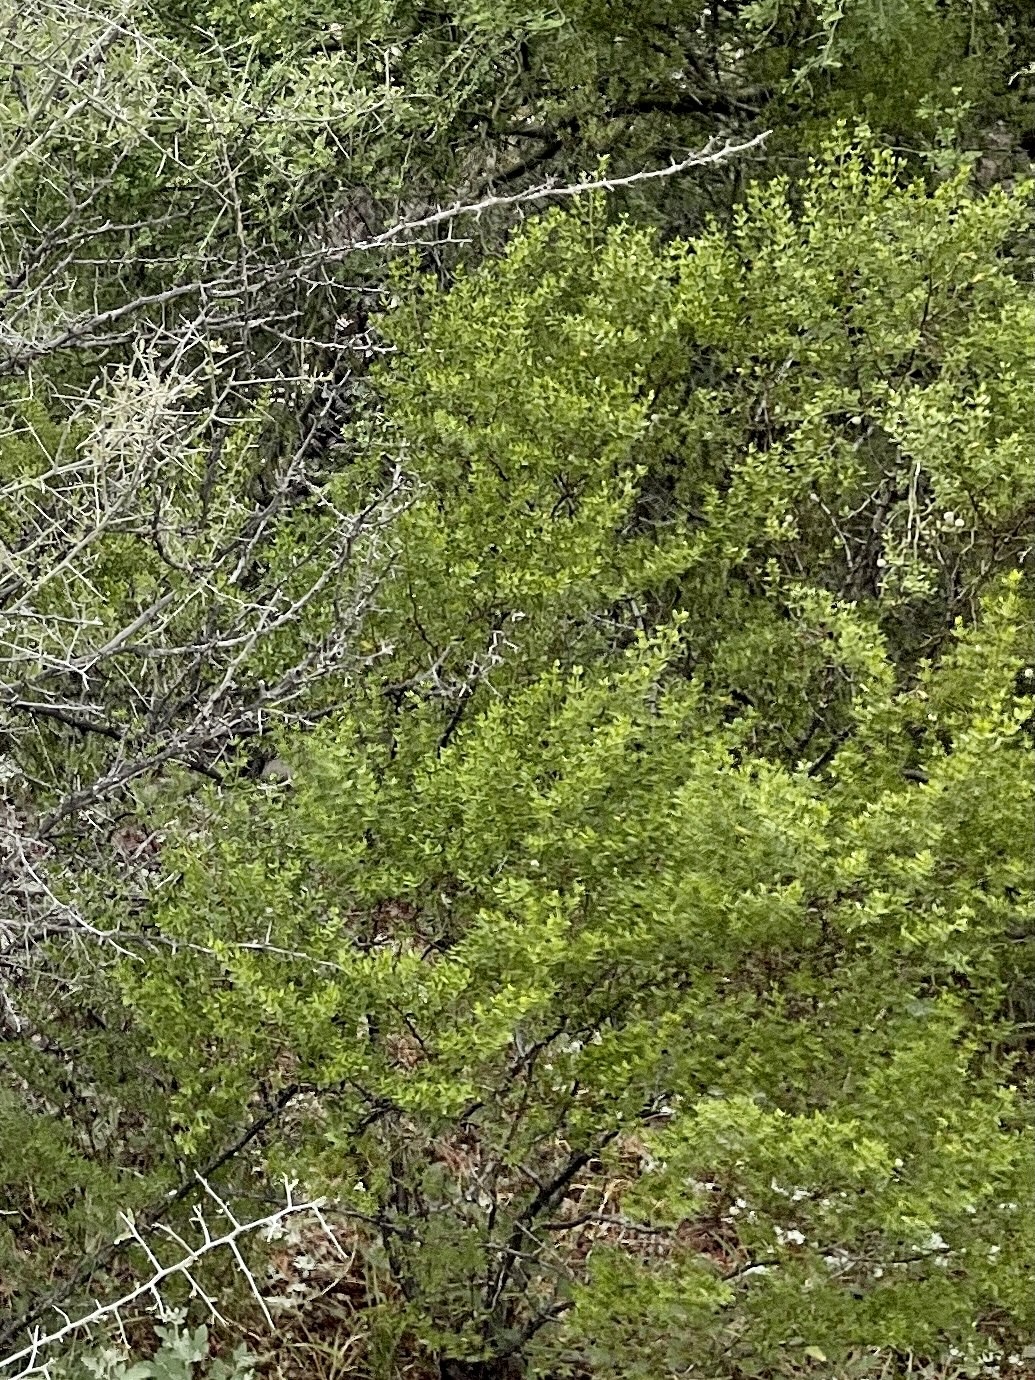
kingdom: Plantae
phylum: Tracheophyta
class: Magnoliopsida
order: Zygophyllales
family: Zygophyllaceae
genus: Larrea
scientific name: Larrea tridentata
